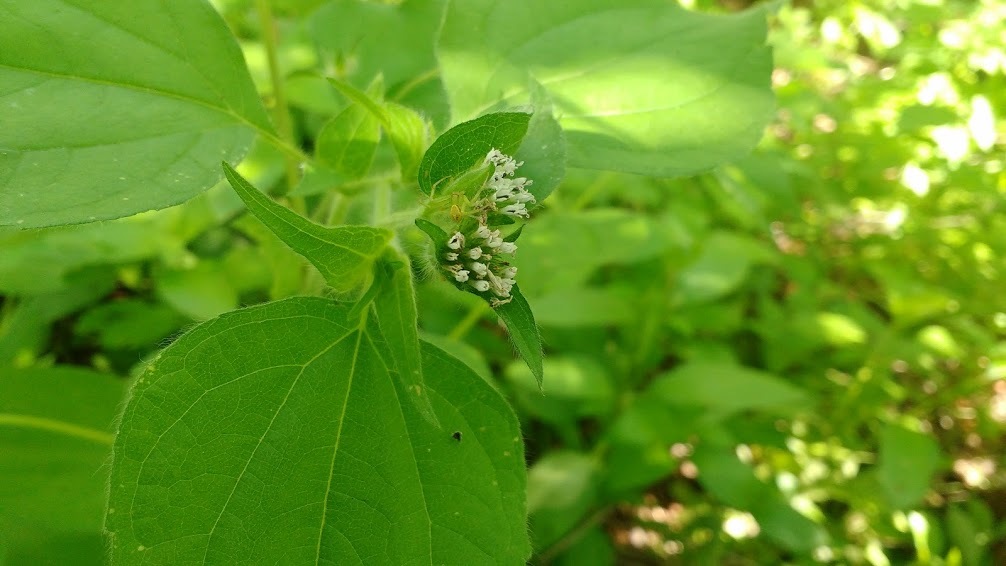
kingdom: Plantae
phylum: Tracheophyta
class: Magnoliopsida
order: Asterales
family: Asteraceae
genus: Lagascea
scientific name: Lagascea mollis
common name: Silkleaf
